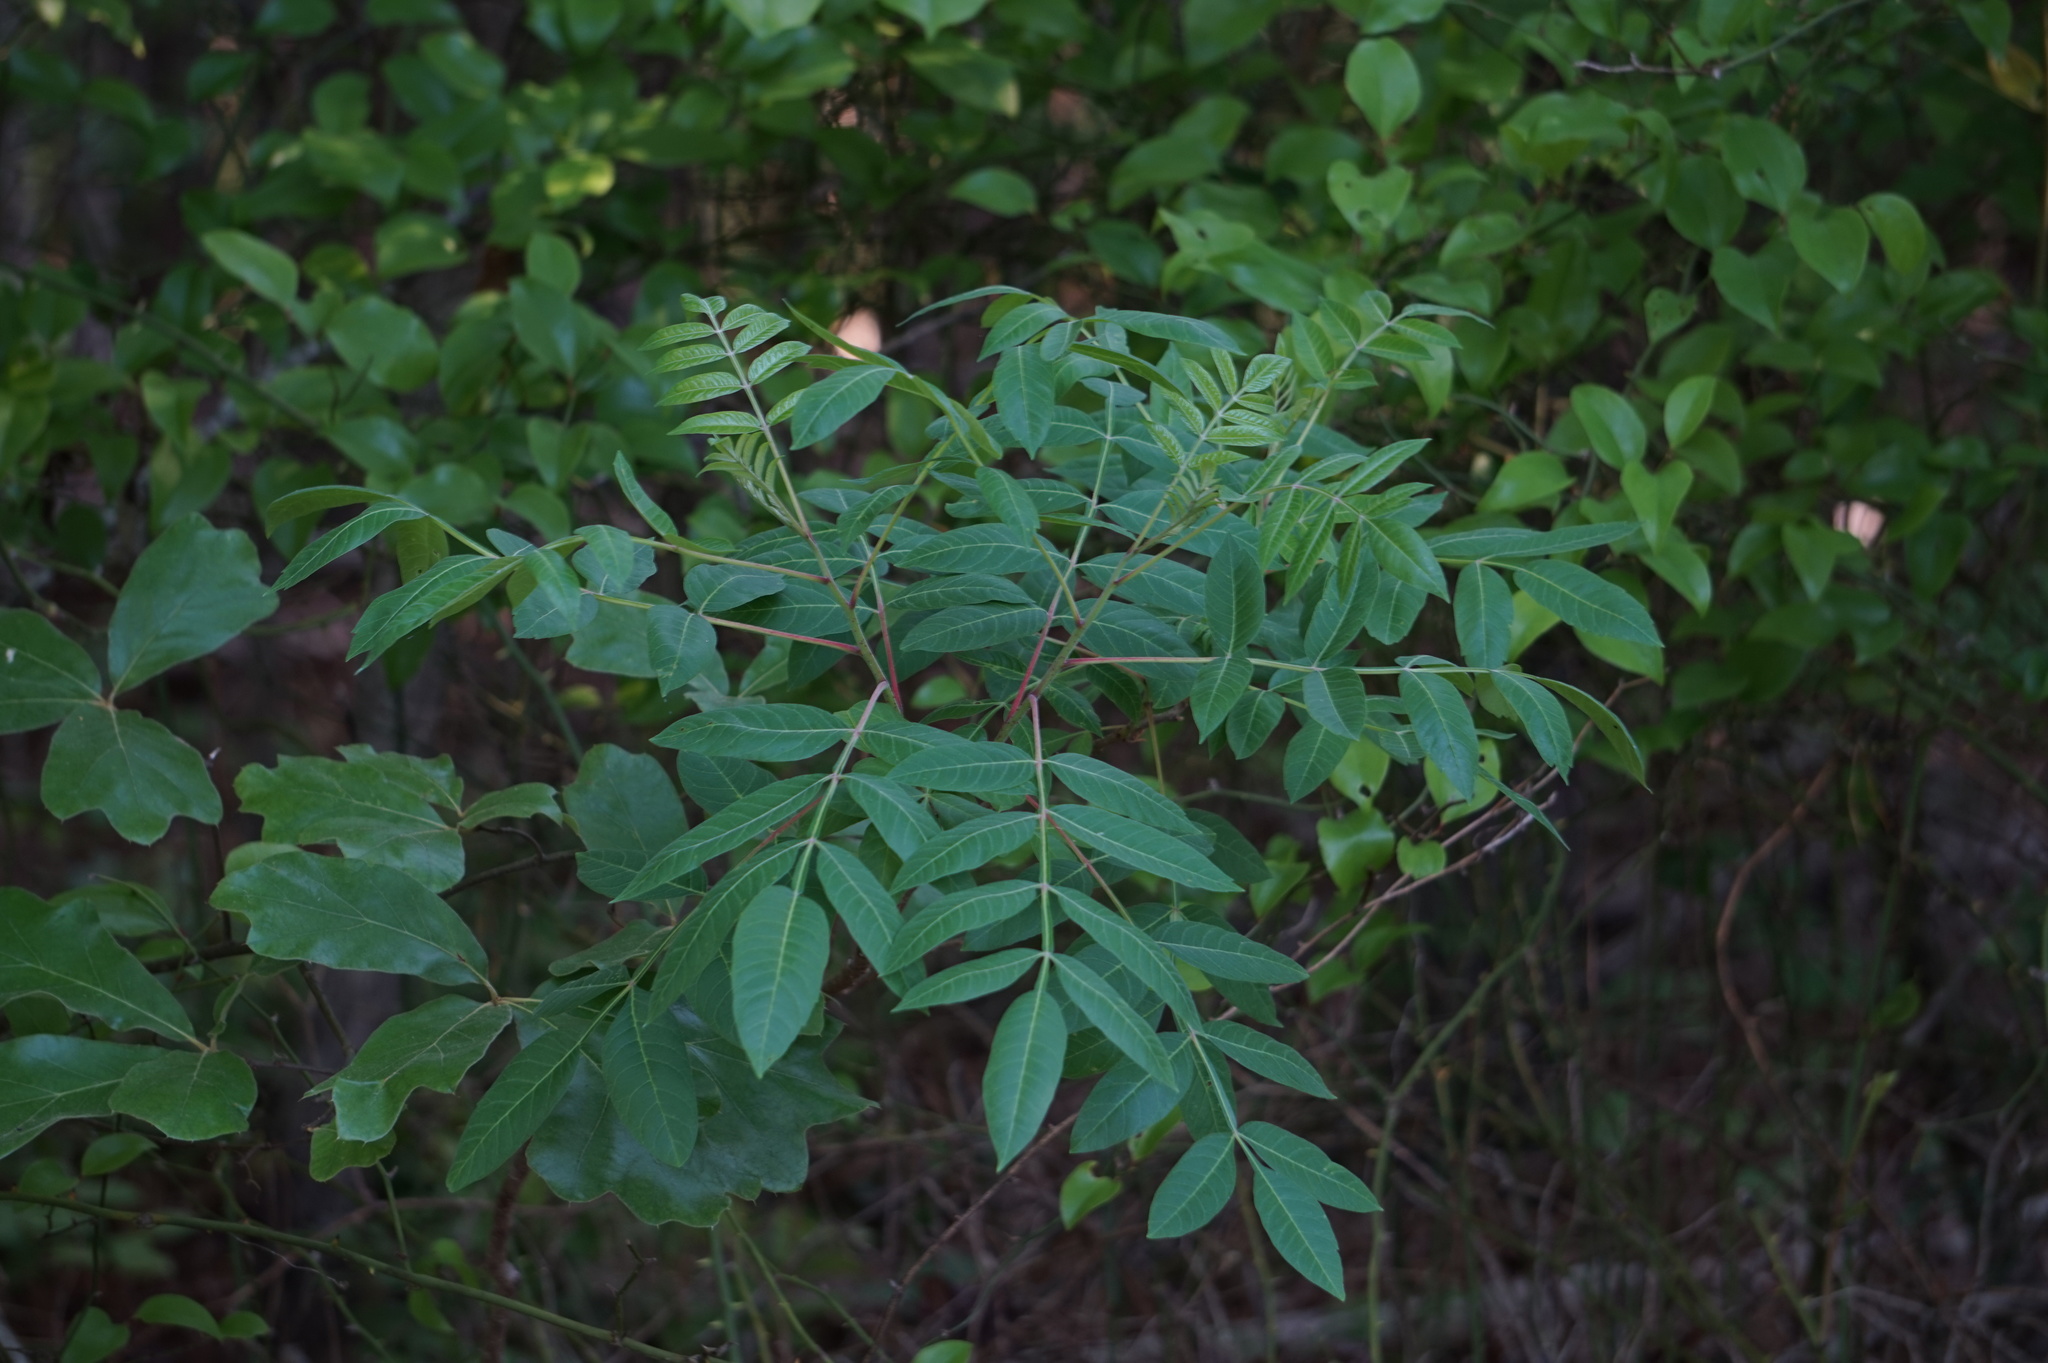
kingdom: Plantae
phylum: Tracheophyta
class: Magnoliopsida
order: Sapindales
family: Anacardiaceae
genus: Rhus
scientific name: Rhus copallina
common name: Shining sumac
